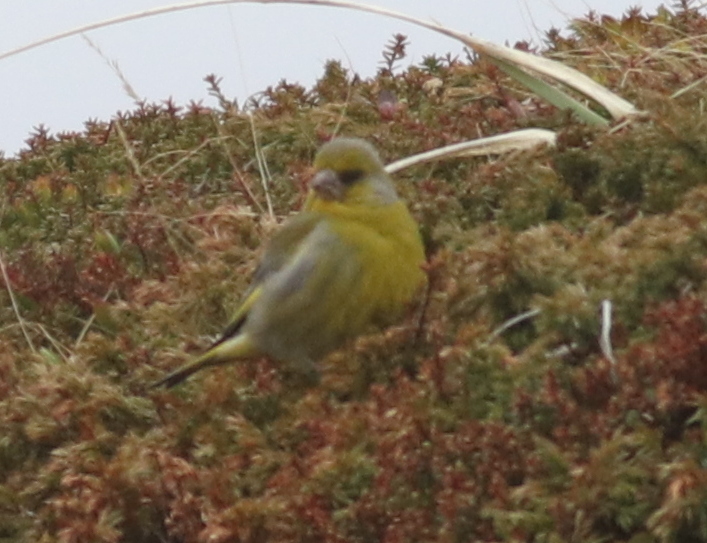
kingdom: Plantae
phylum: Tracheophyta
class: Liliopsida
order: Poales
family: Poaceae
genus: Chloris
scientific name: Chloris chloris
